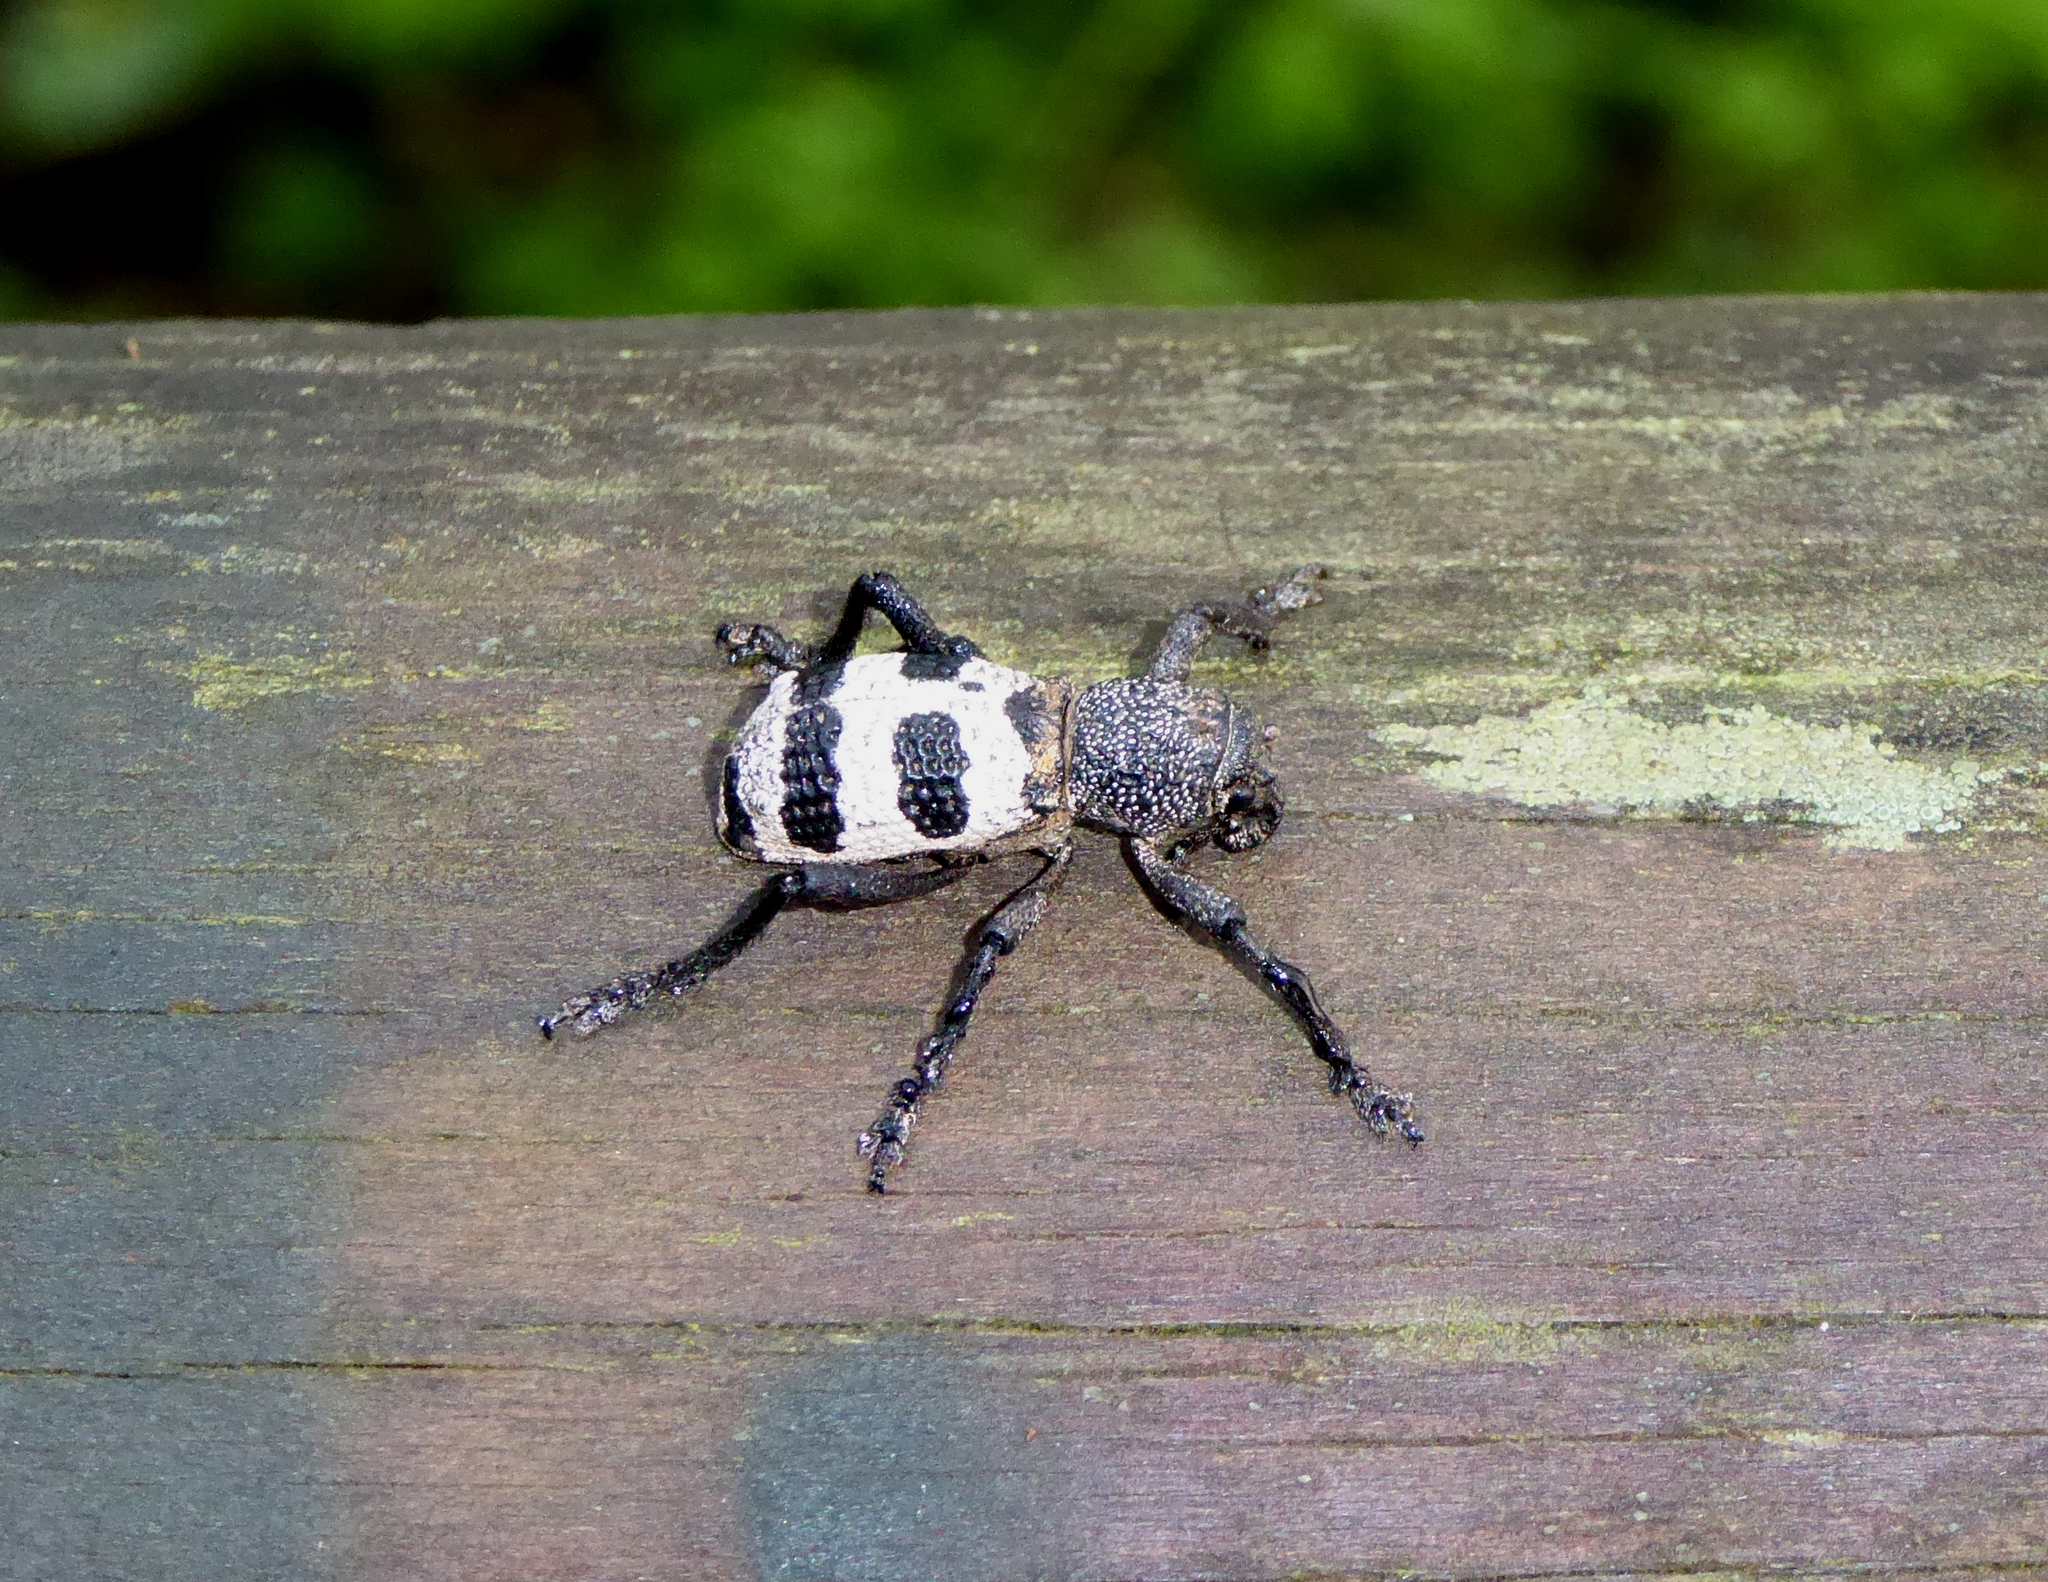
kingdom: Animalia
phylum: Arthropoda
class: Insecta
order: Coleoptera
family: Curculionidae
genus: Aegorhinus
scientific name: Aegorhinus phaleratus
